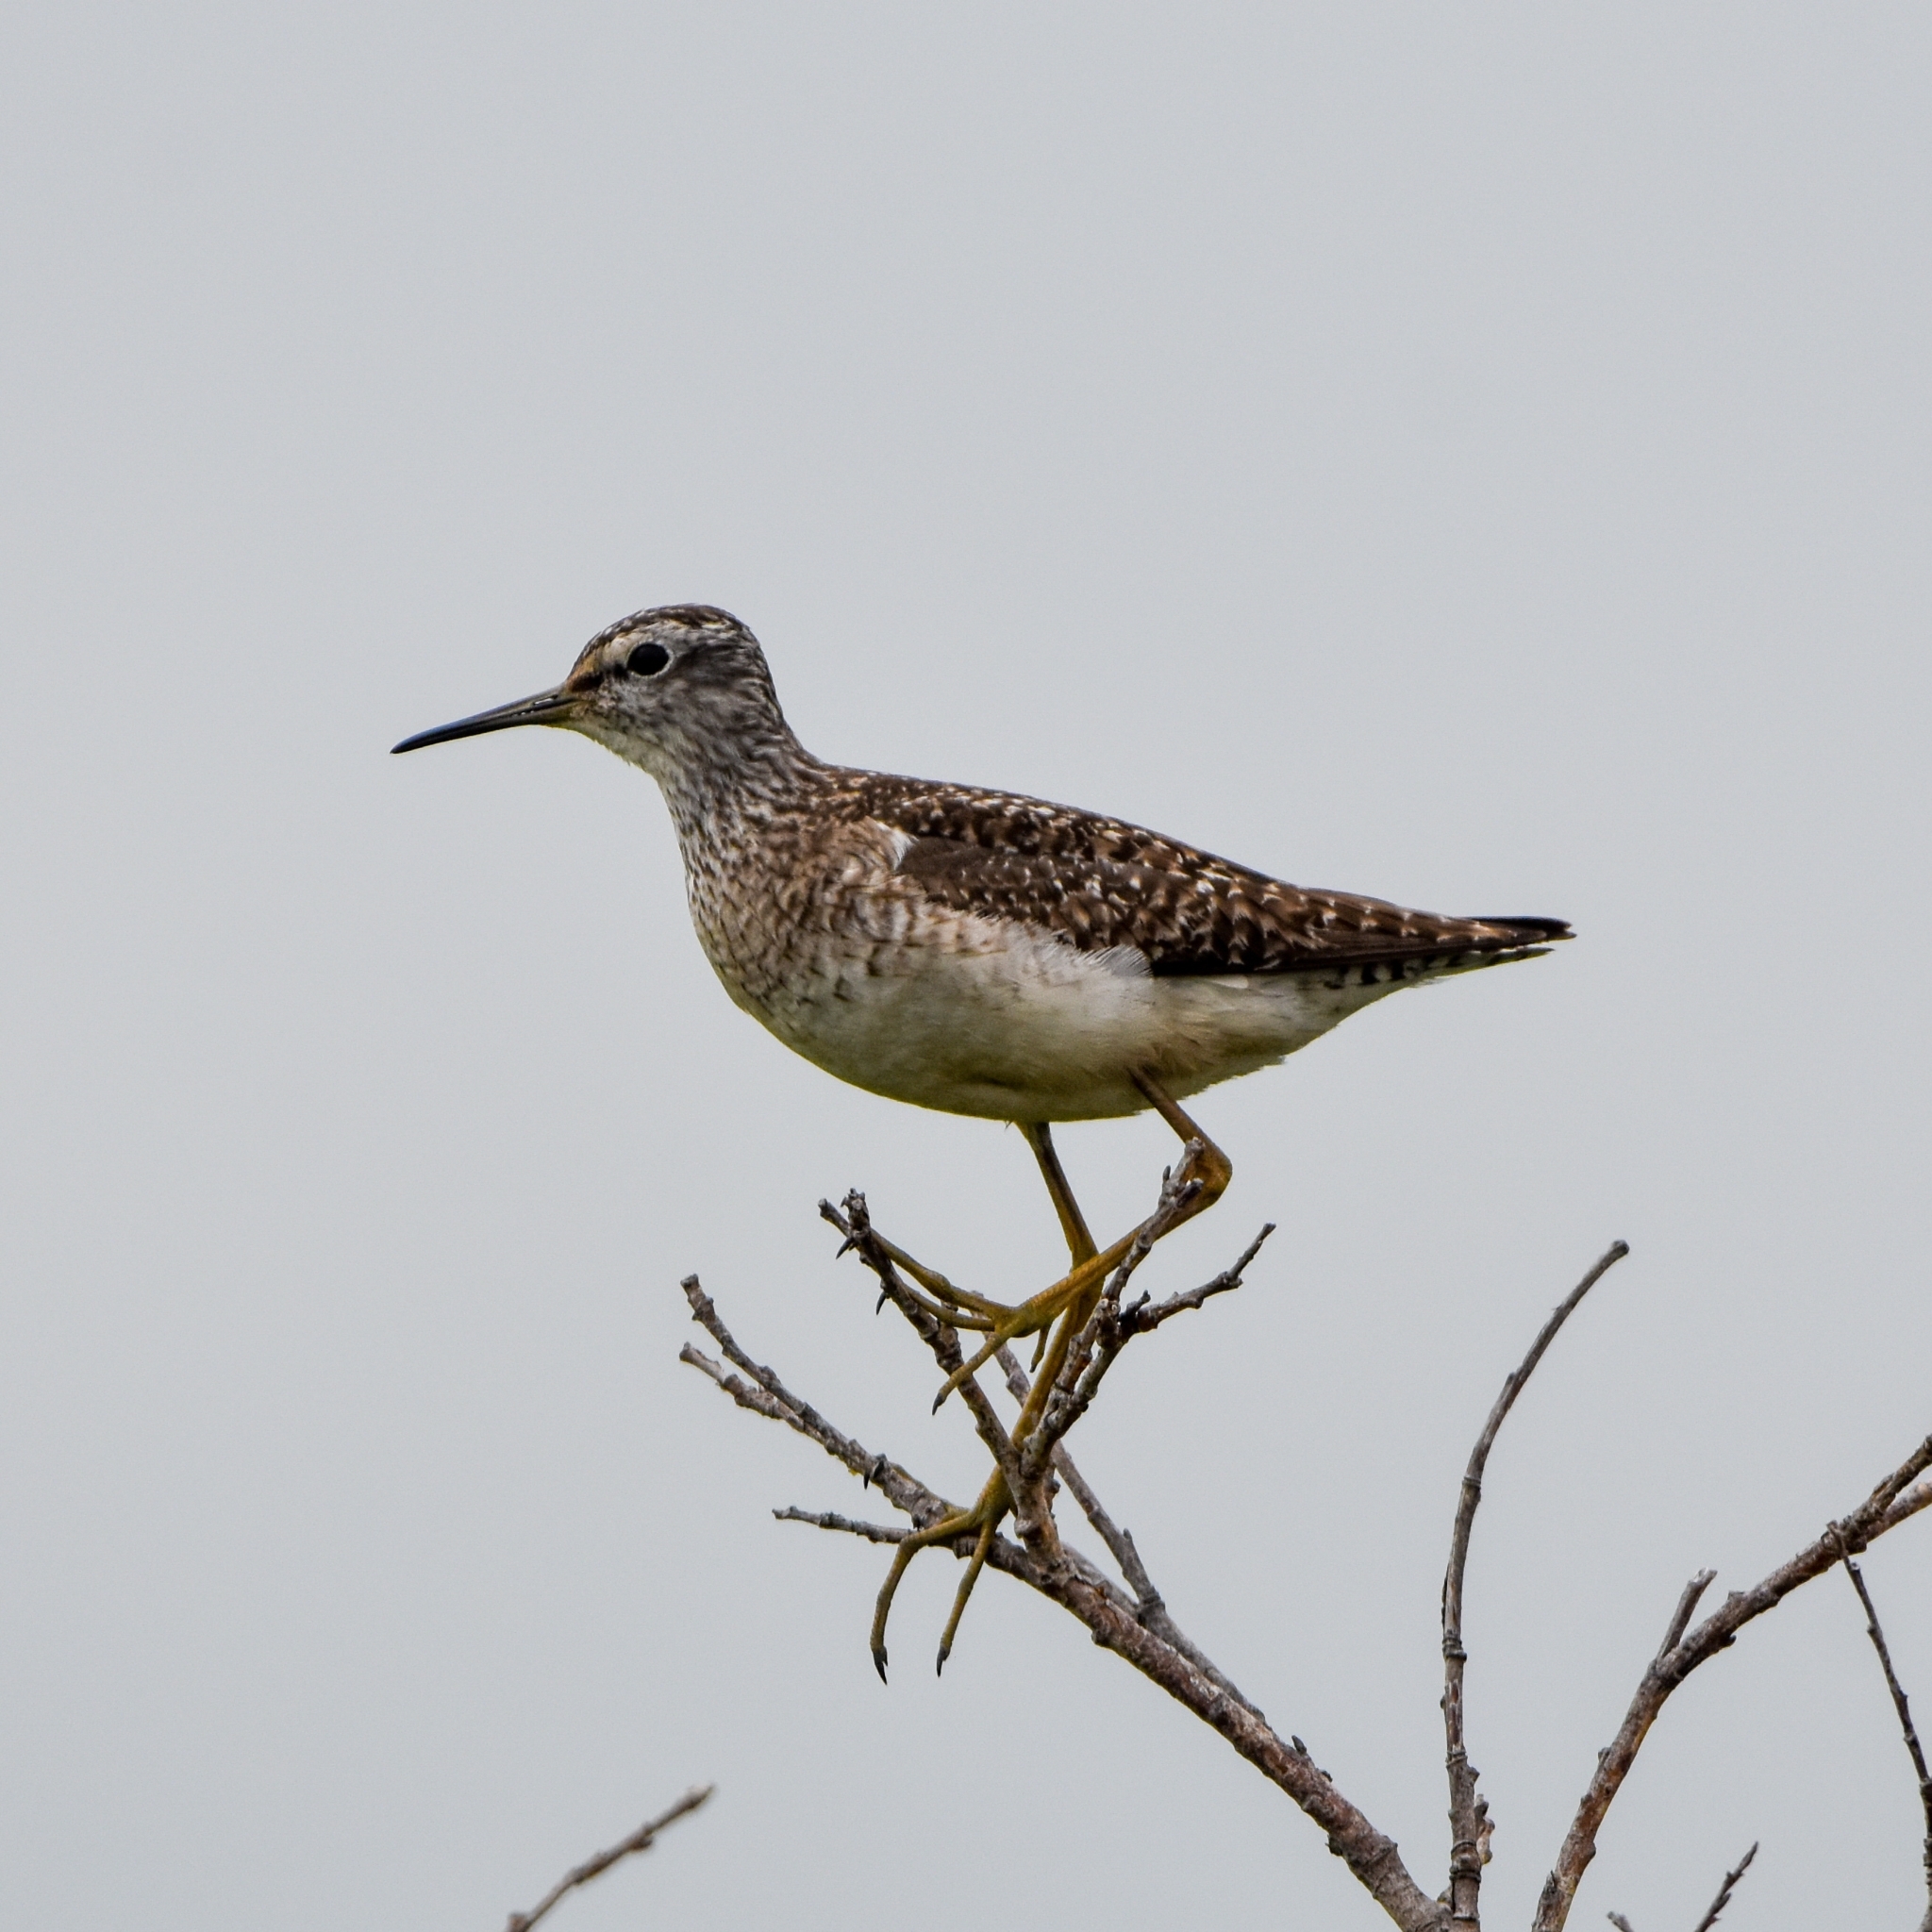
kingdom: Animalia
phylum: Chordata
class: Aves
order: Charadriiformes
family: Scolopacidae
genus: Tringa
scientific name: Tringa glareola
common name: Wood sandpiper
